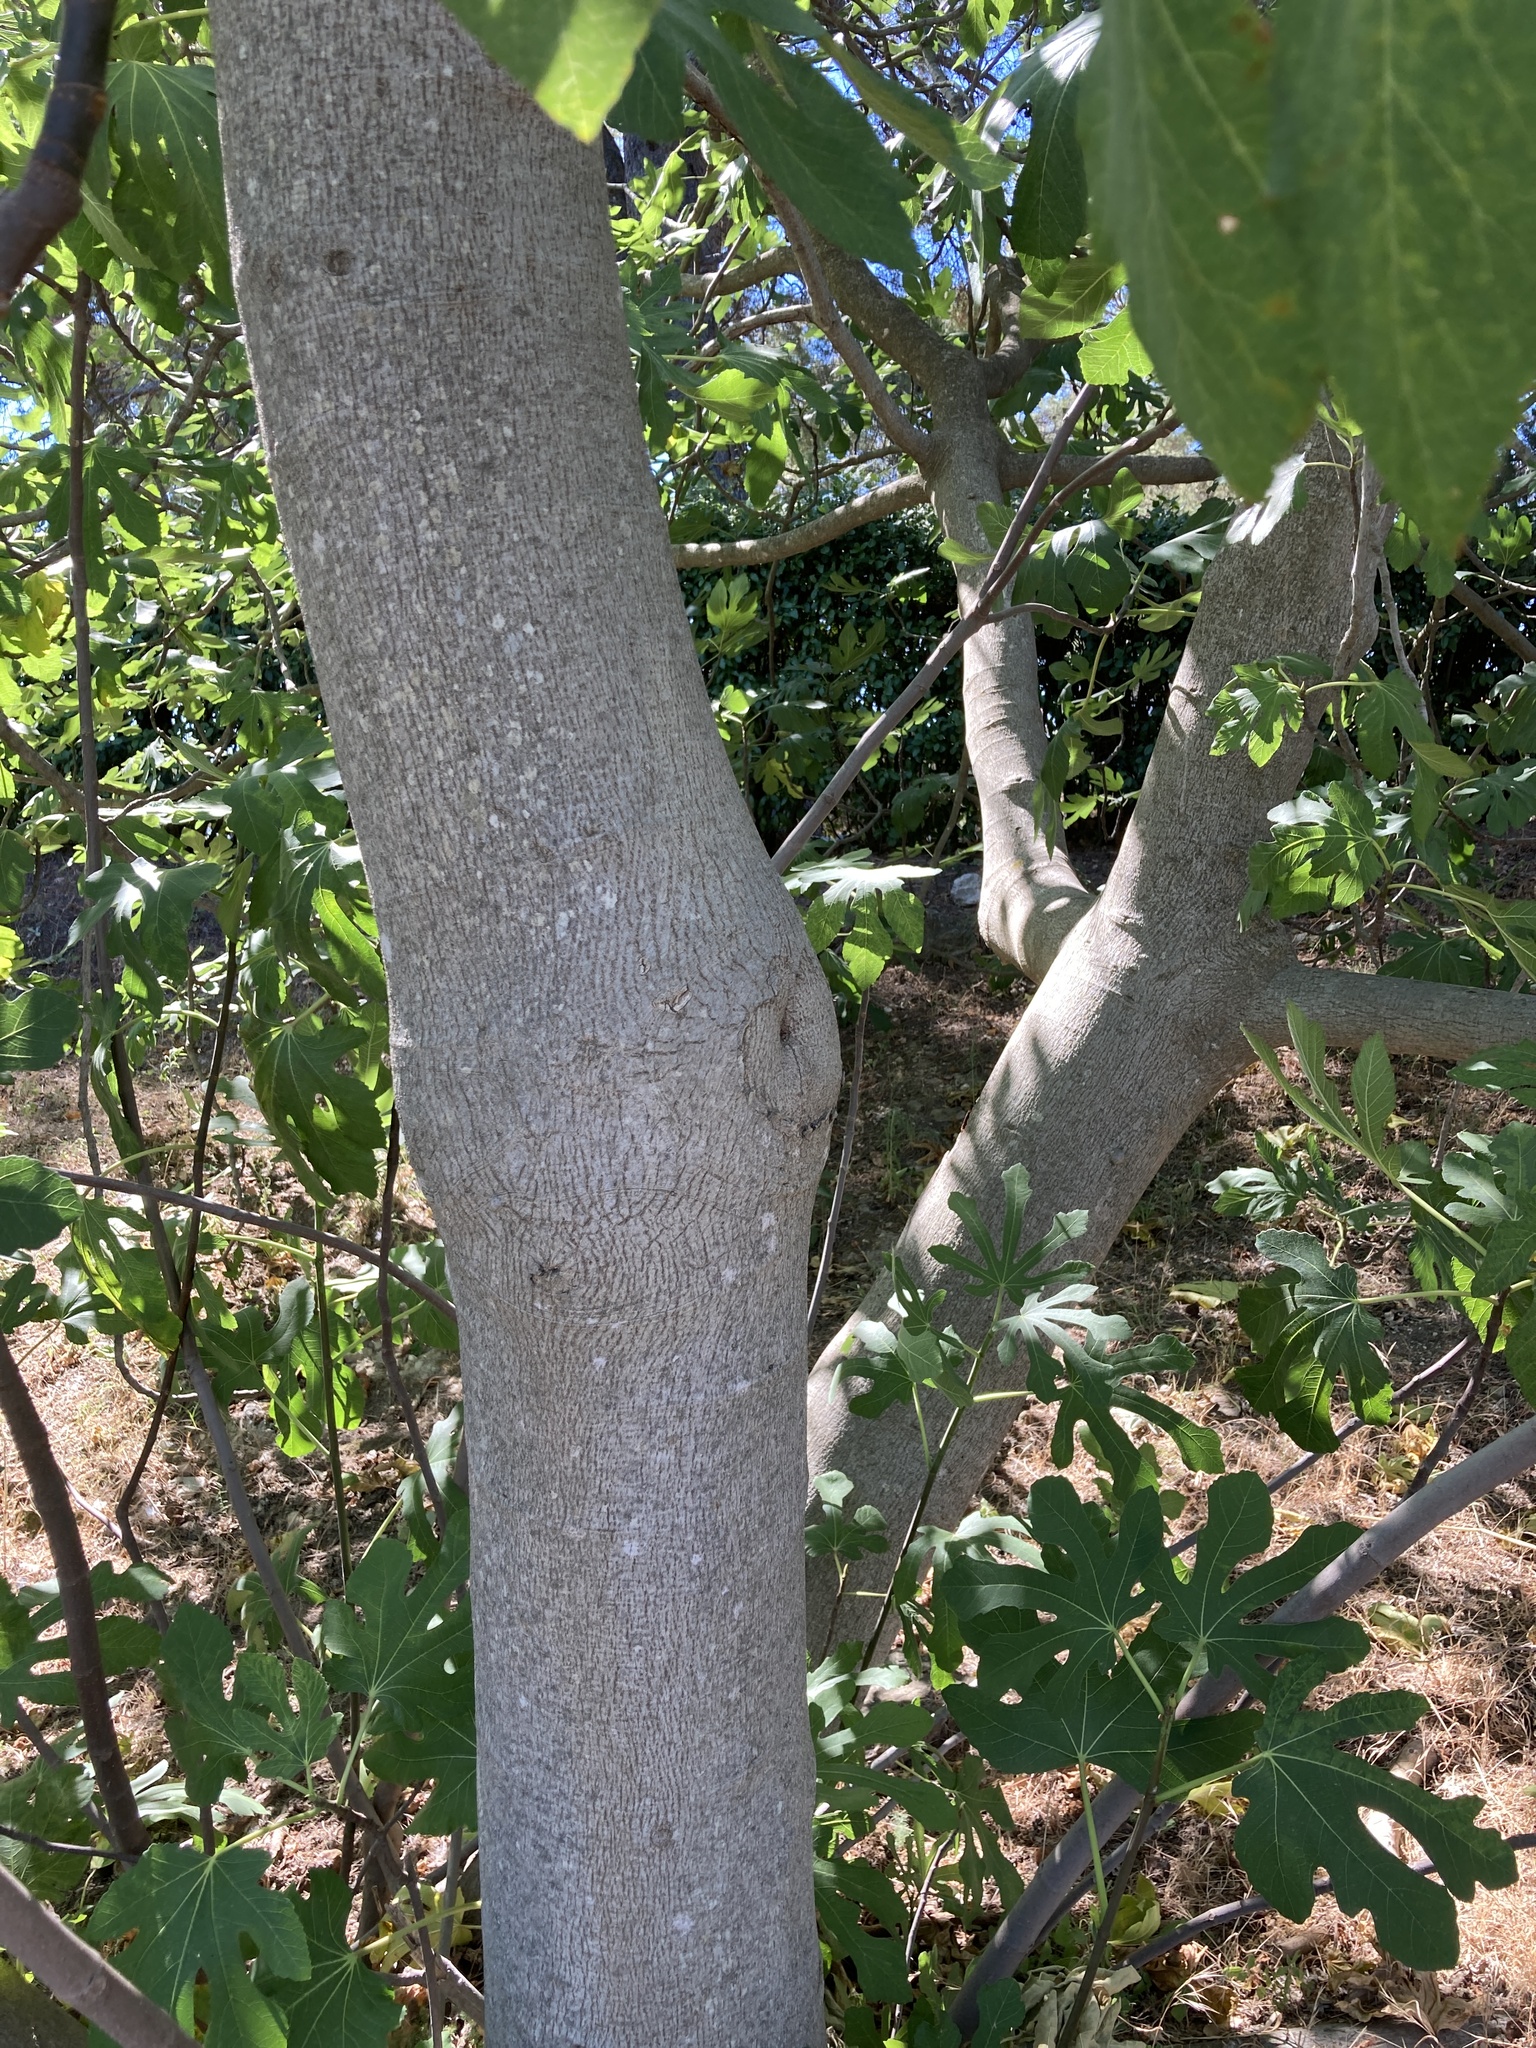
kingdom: Plantae
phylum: Tracheophyta
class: Magnoliopsida
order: Rosales
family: Moraceae
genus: Ficus
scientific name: Ficus carica
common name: Fig
